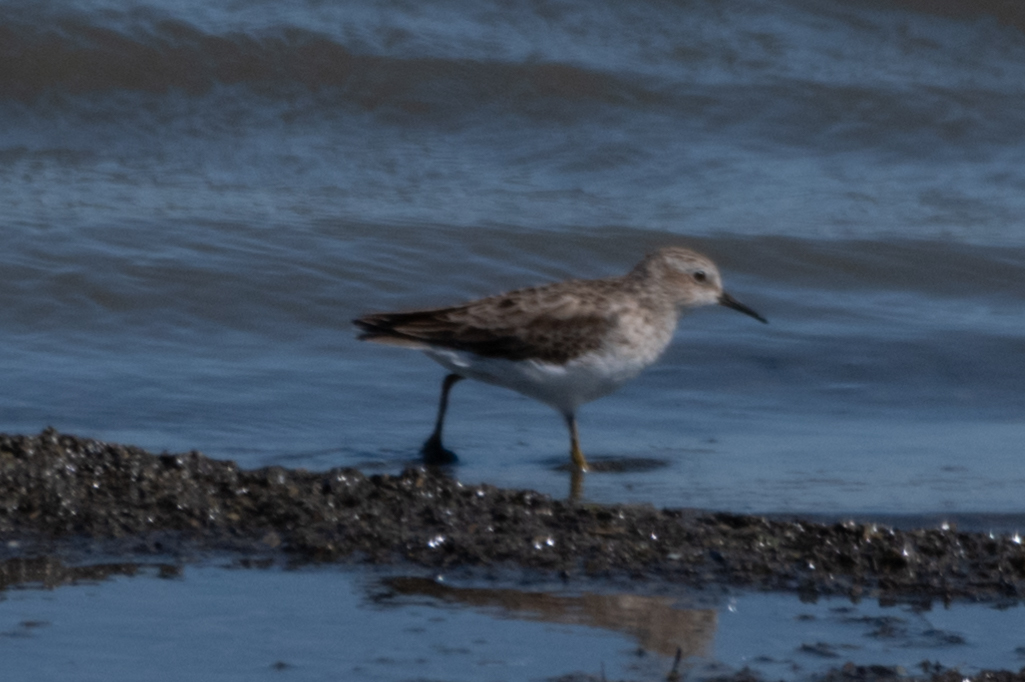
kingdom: Animalia
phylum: Chordata
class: Aves
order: Charadriiformes
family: Scolopacidae
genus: Calidris
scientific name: Calidris minutilla
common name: Least sandpiper
